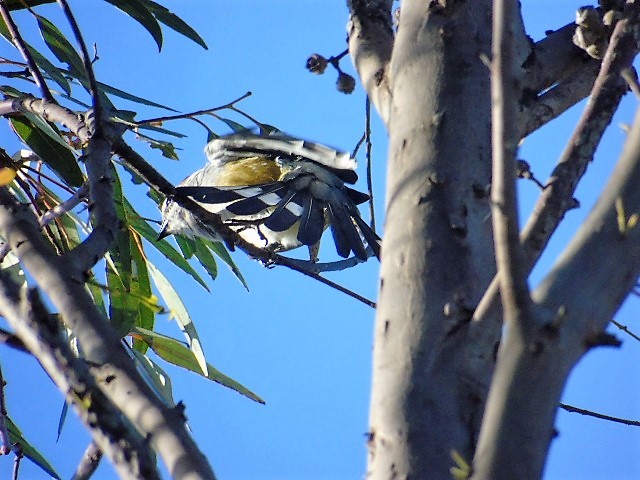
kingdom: Animalia
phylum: Chordata
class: Aves
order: Passeriformes
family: Ptilogonatidae
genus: Ptilogonys
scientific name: Ptilogonys cinereus
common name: Gray silky-flycatcher
